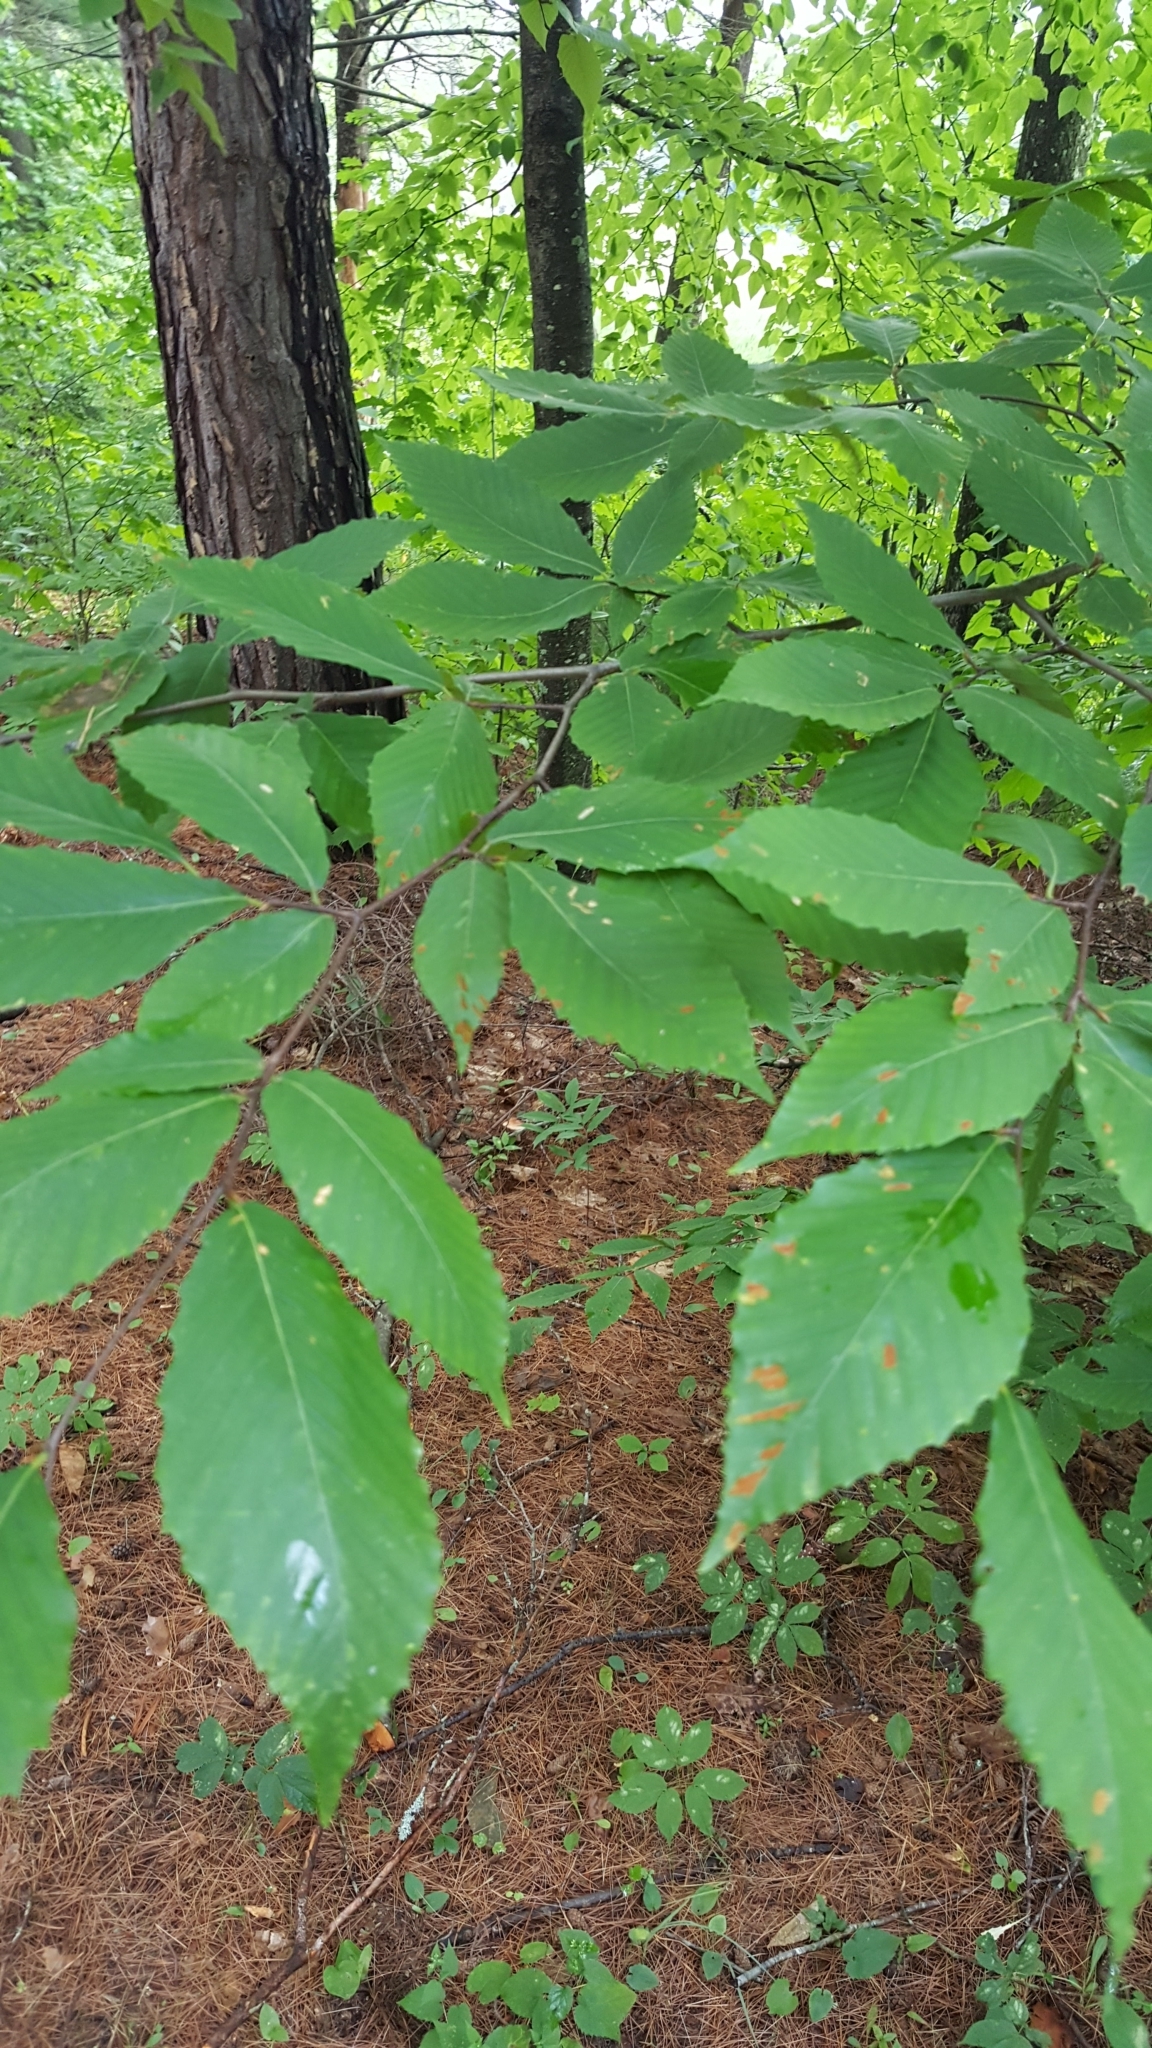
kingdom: Plantae
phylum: Tracheophyta
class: Magnoliopsida
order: Fagales
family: Fagaceae
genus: Fagus
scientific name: Fagus grandifolia
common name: American beech
